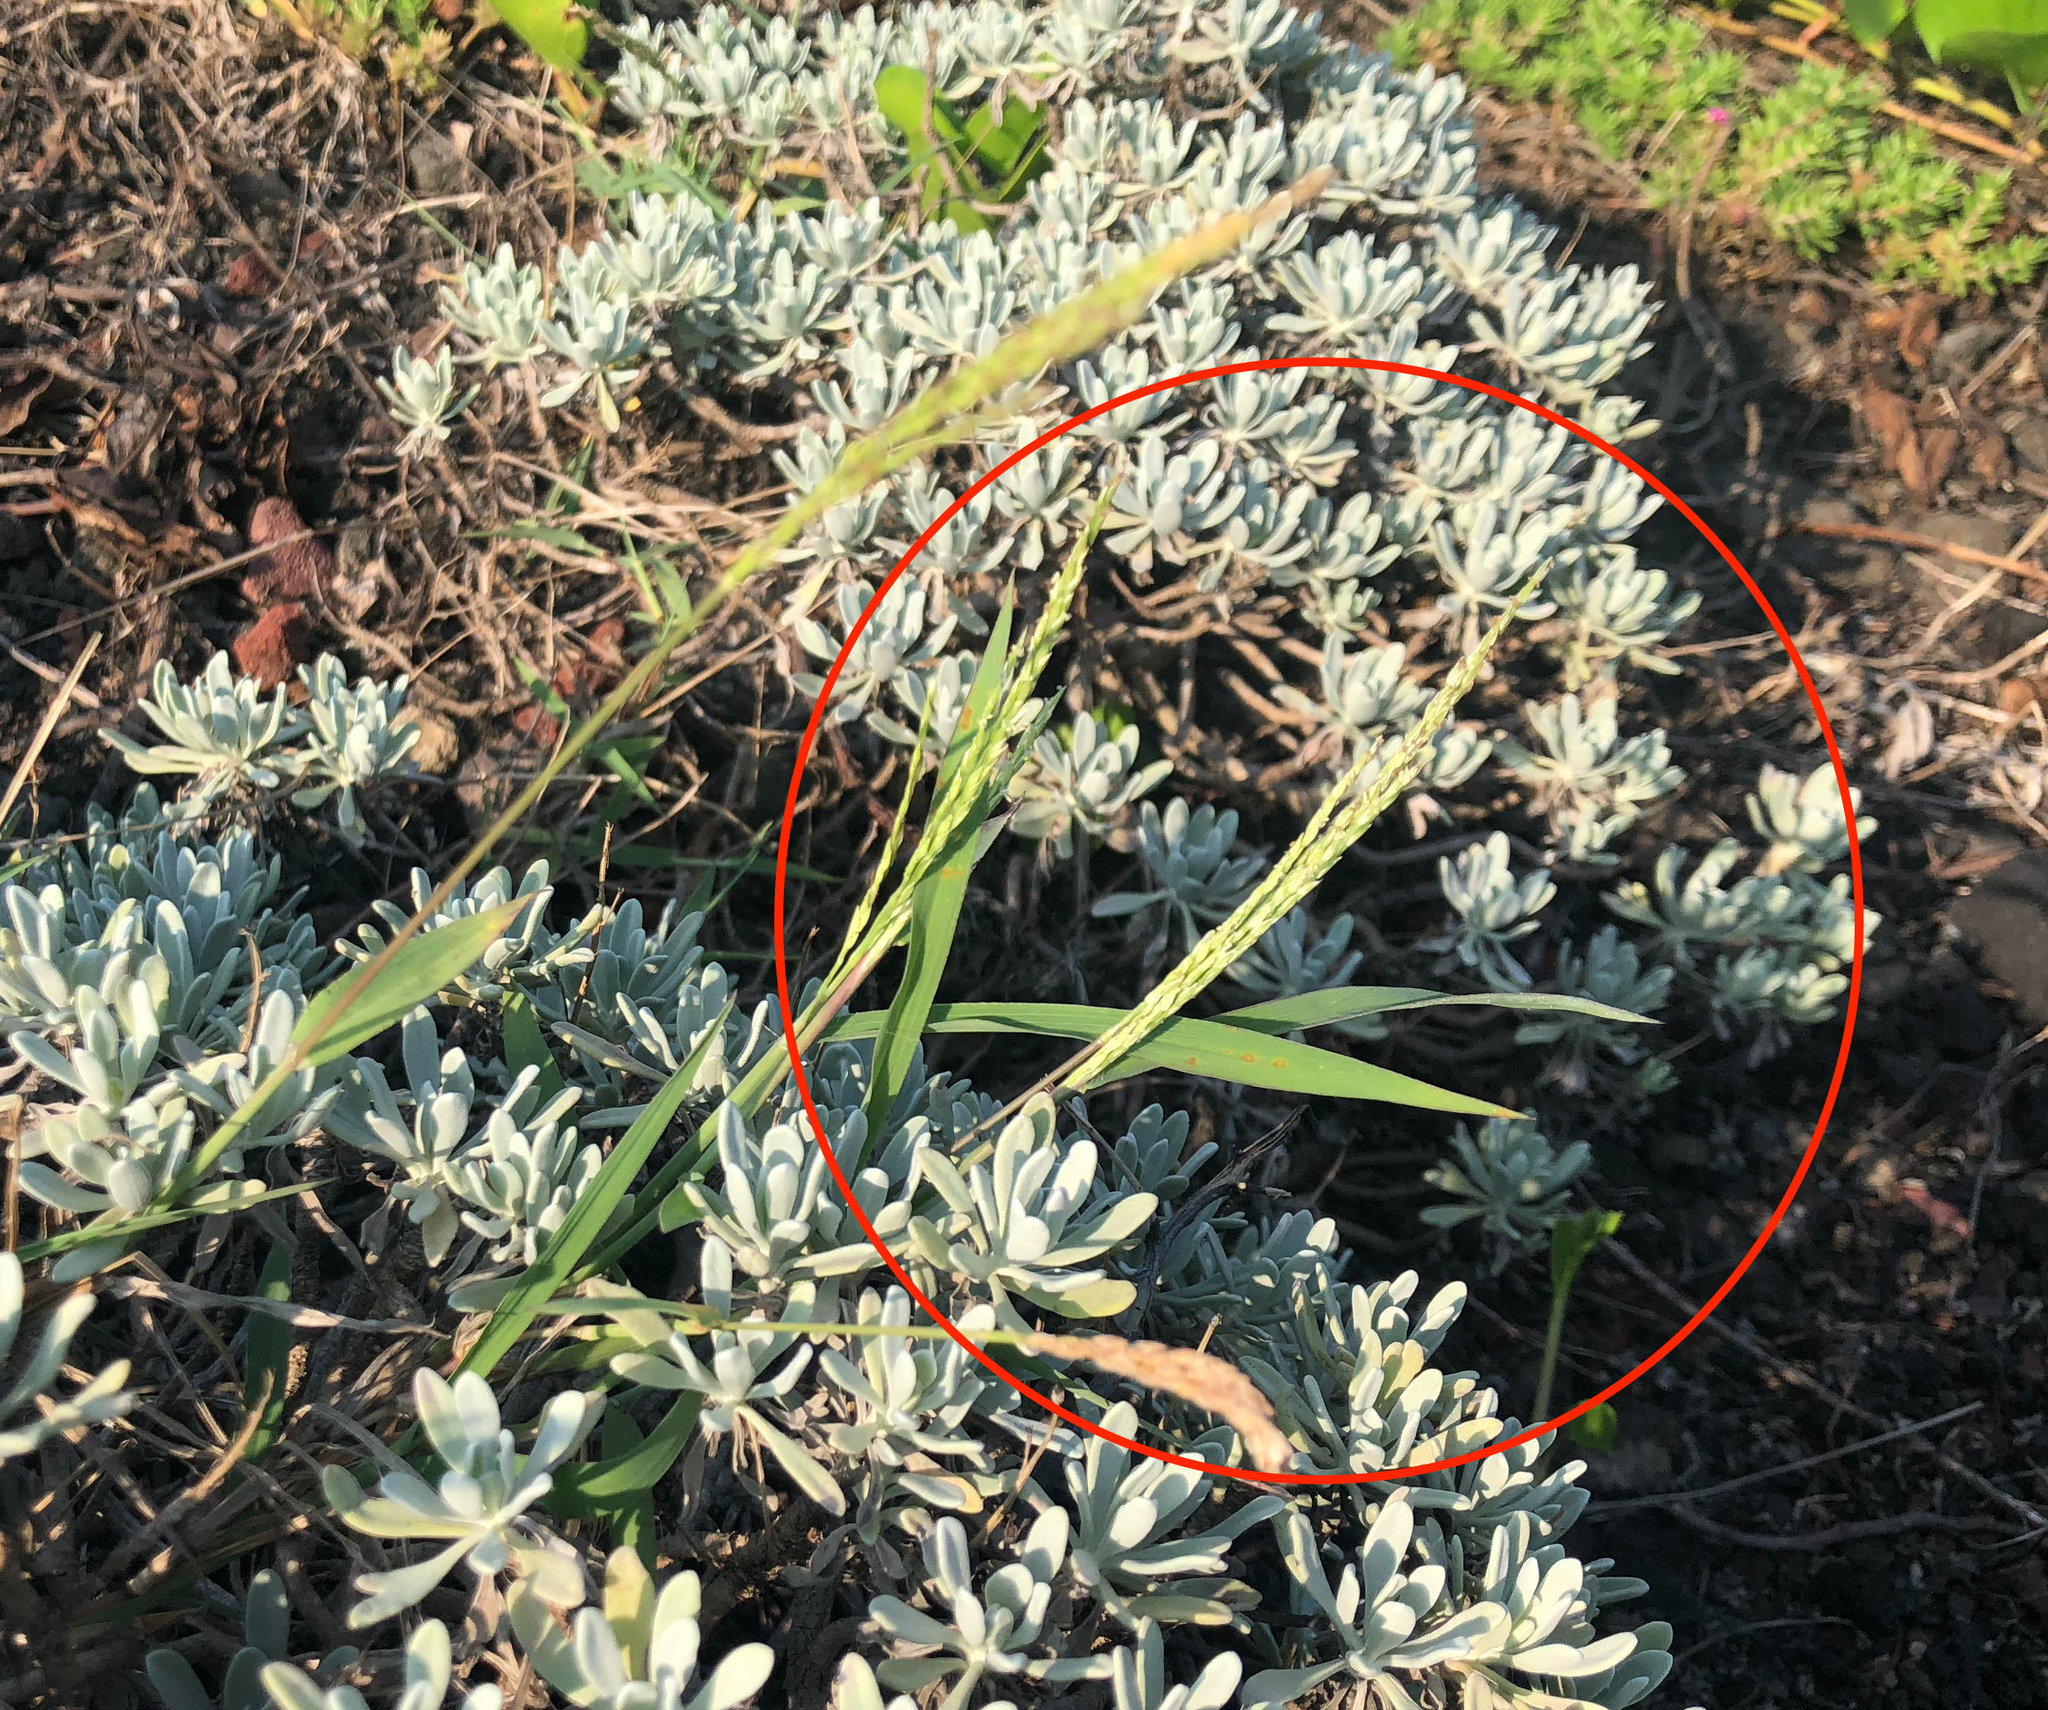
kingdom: Plantae
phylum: Tracheophyta
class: Liliopsida
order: Poales
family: Poaceae
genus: Digitaria
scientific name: Digitaria ciliaris
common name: Tropical finger-grass
